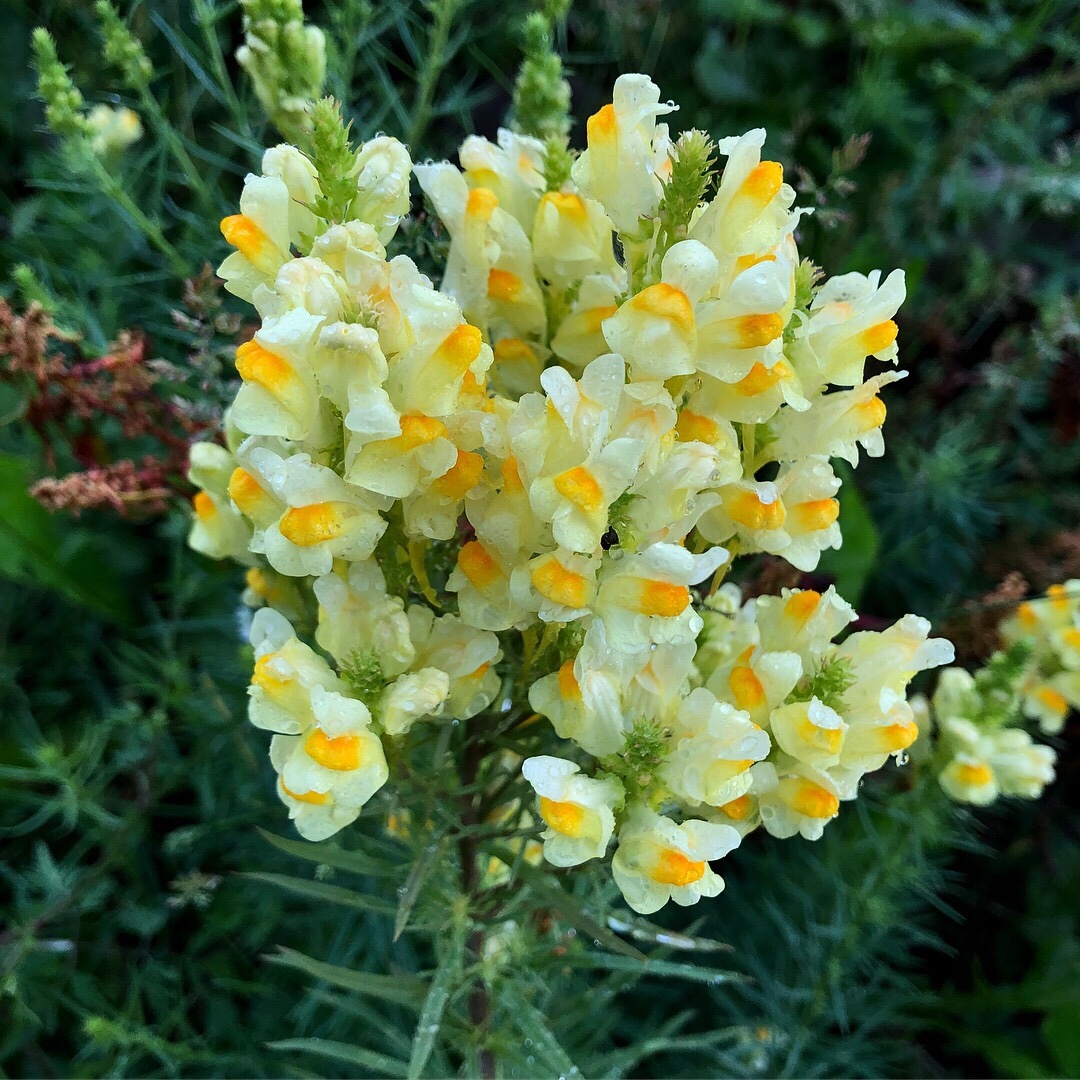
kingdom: Plantae
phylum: Tracheophyta
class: Magnoliopsida
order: Lamiales
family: Plantaginaceae
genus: Linaria
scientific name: Linaria vulgaris
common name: Butter and eggs
